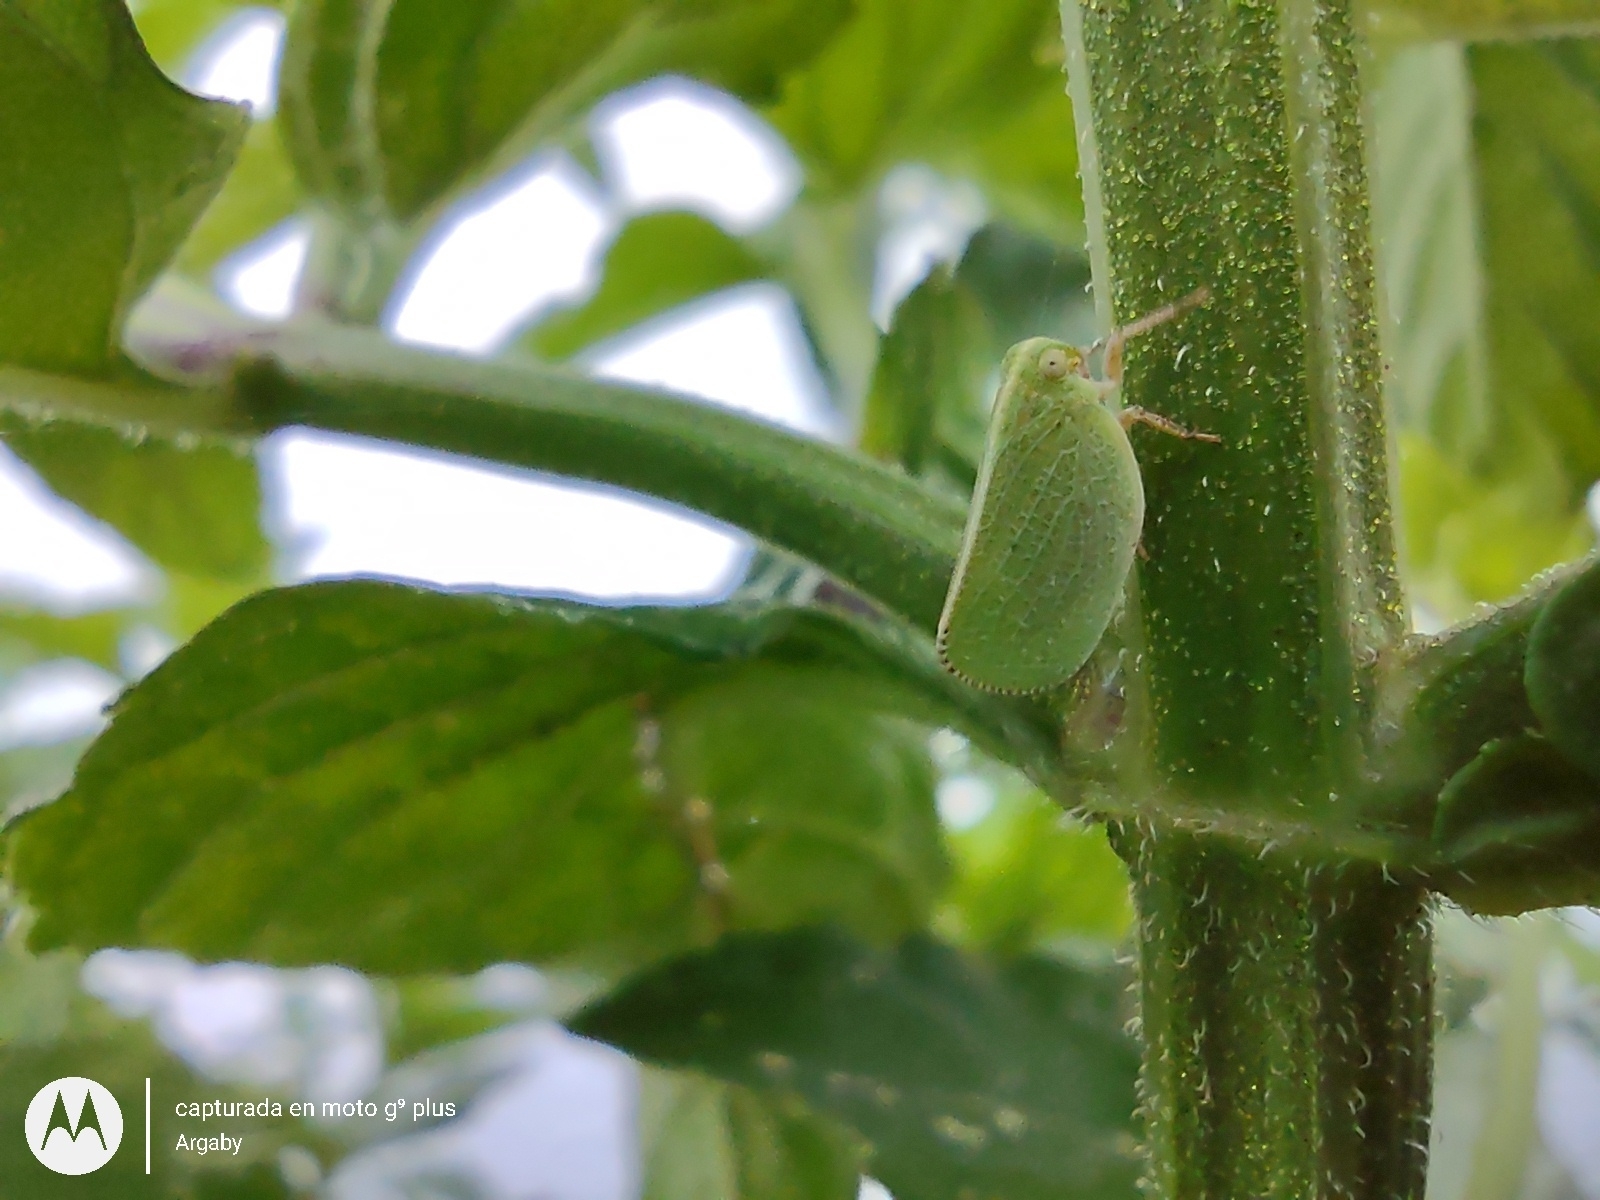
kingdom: Animalia
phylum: Arthropoda
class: Insecta
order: Hemiptera
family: Acanaloniidae
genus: Acanalonia
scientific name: Acanalonia chloris
